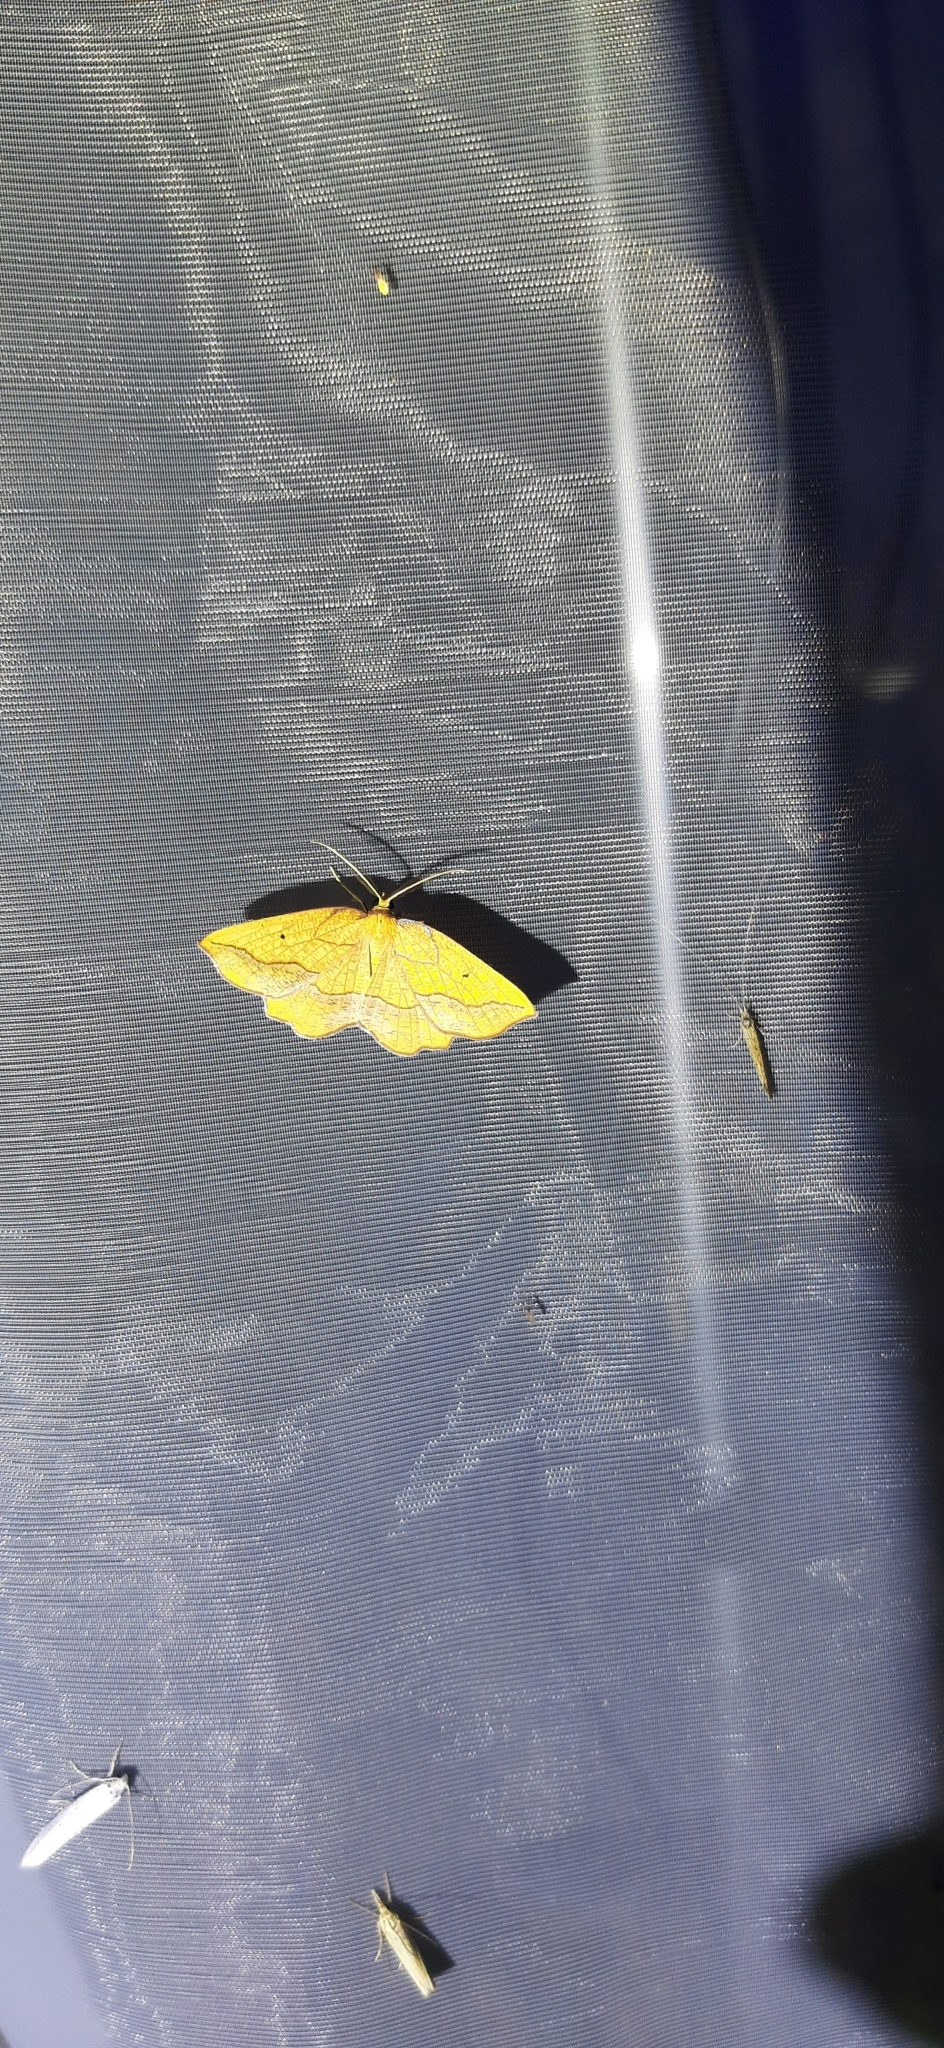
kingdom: Animalia
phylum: Arthropoda
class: Insecta
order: Lepidoptera
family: Geometridae
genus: Epione
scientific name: Epione repandaria
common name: Bordered beauty
